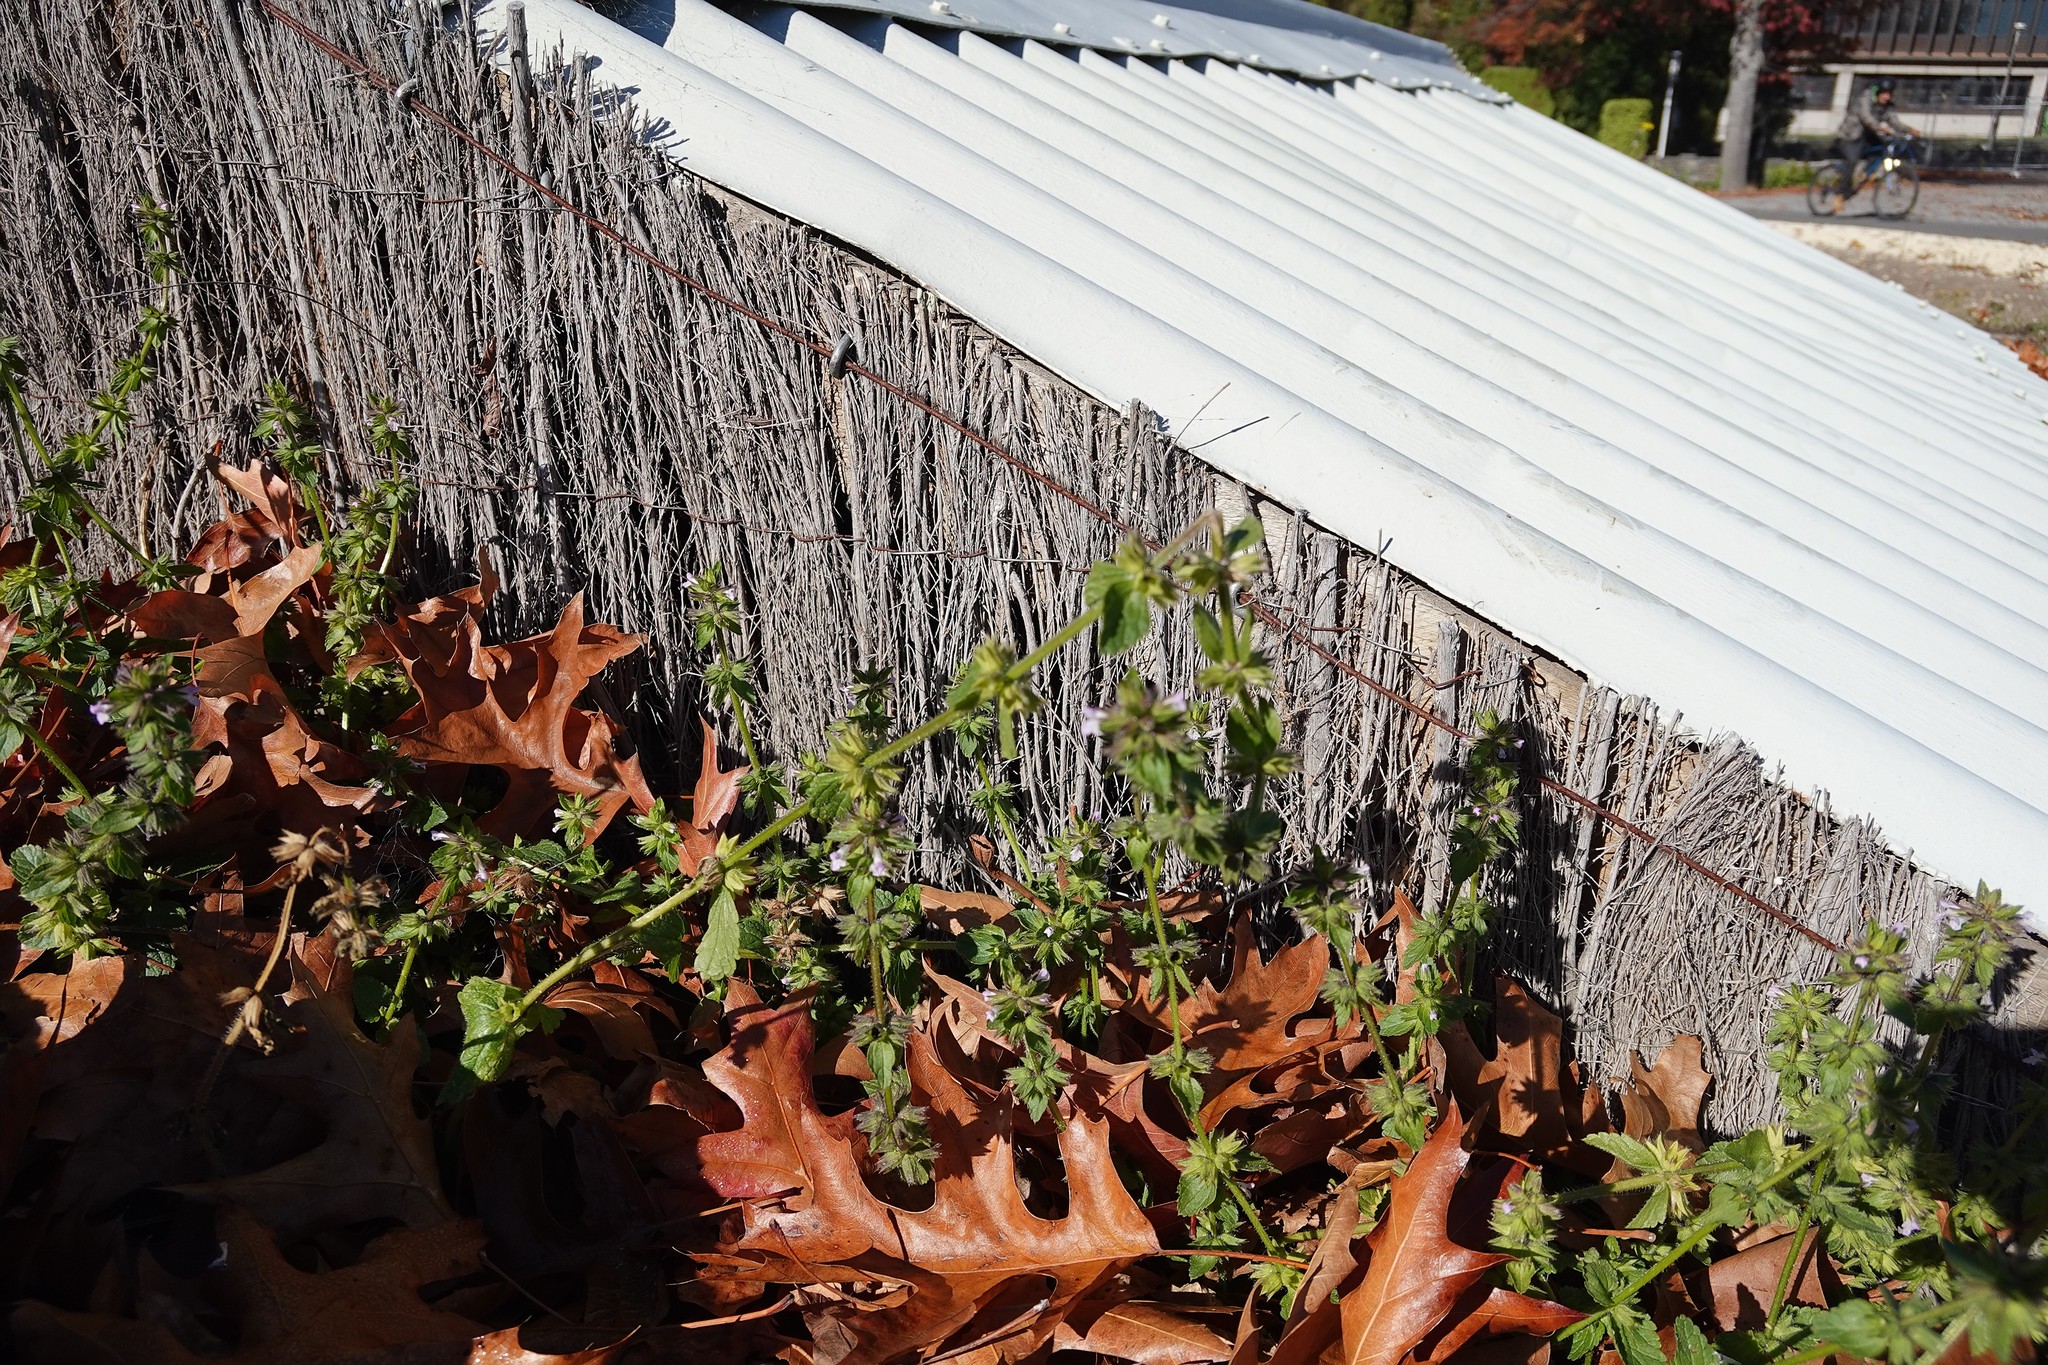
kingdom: Plantae
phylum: Tracheophyta
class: Magnoliopsida
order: Lamiales
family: Lamiaceae
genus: Stachys
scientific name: Stachys arvensis
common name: Field woundwort
